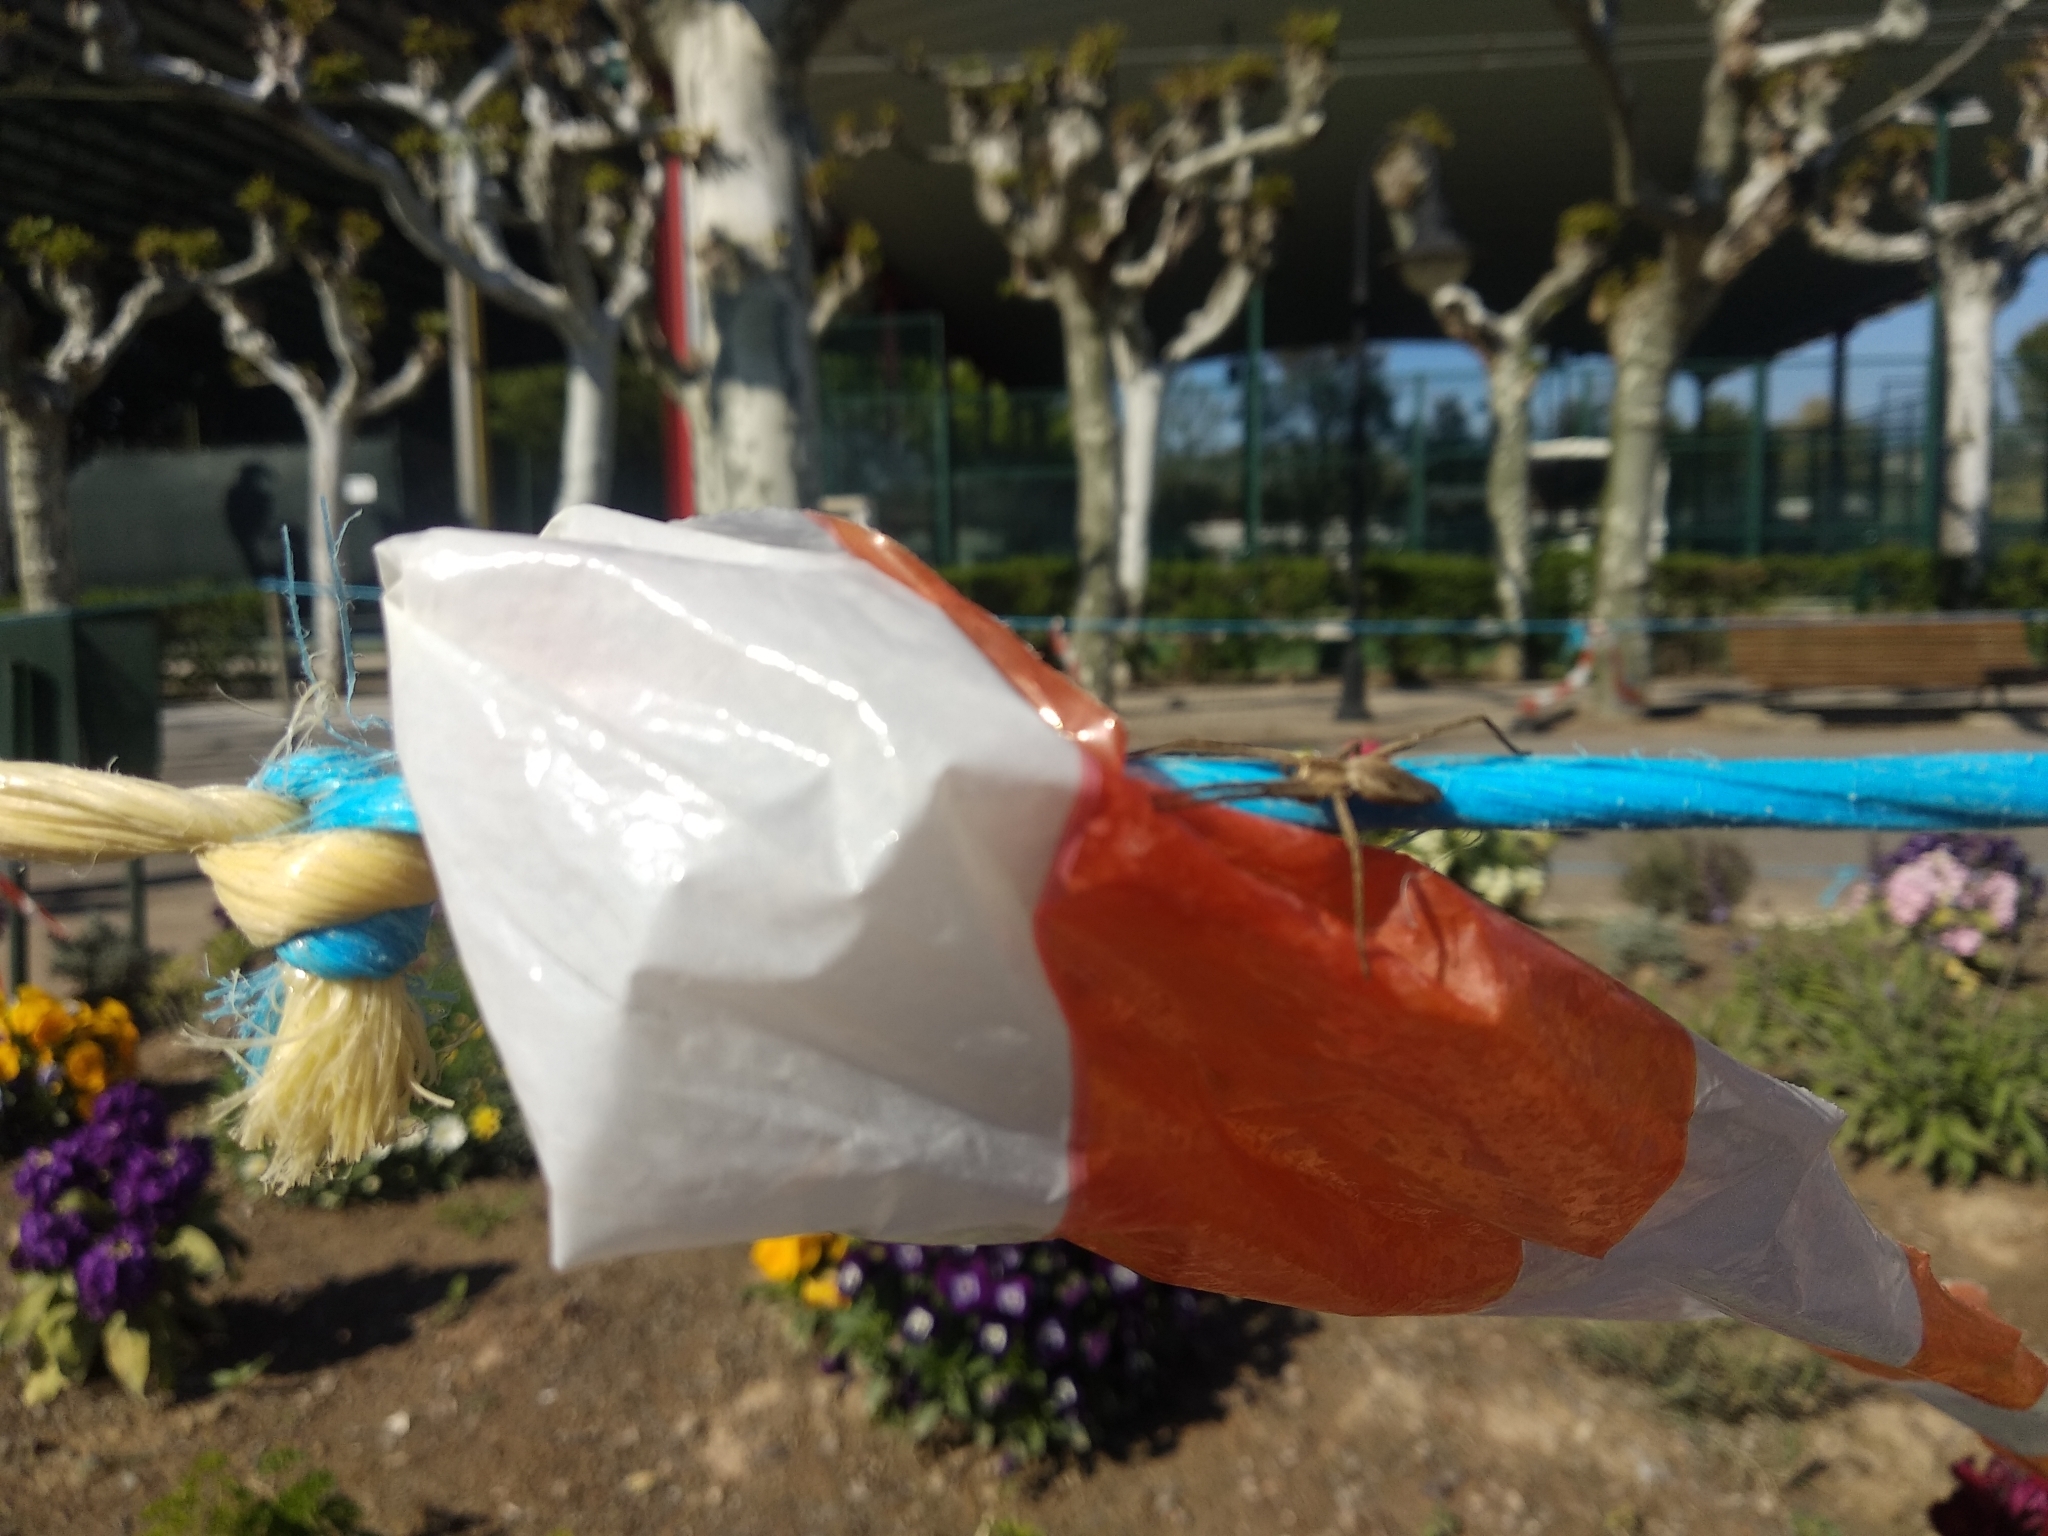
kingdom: Animalia
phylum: Arthropoda
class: Arachnida
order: Araneae
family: Pisauridae
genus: Pisaura
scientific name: Pisaura mirabilis
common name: Tent spider
